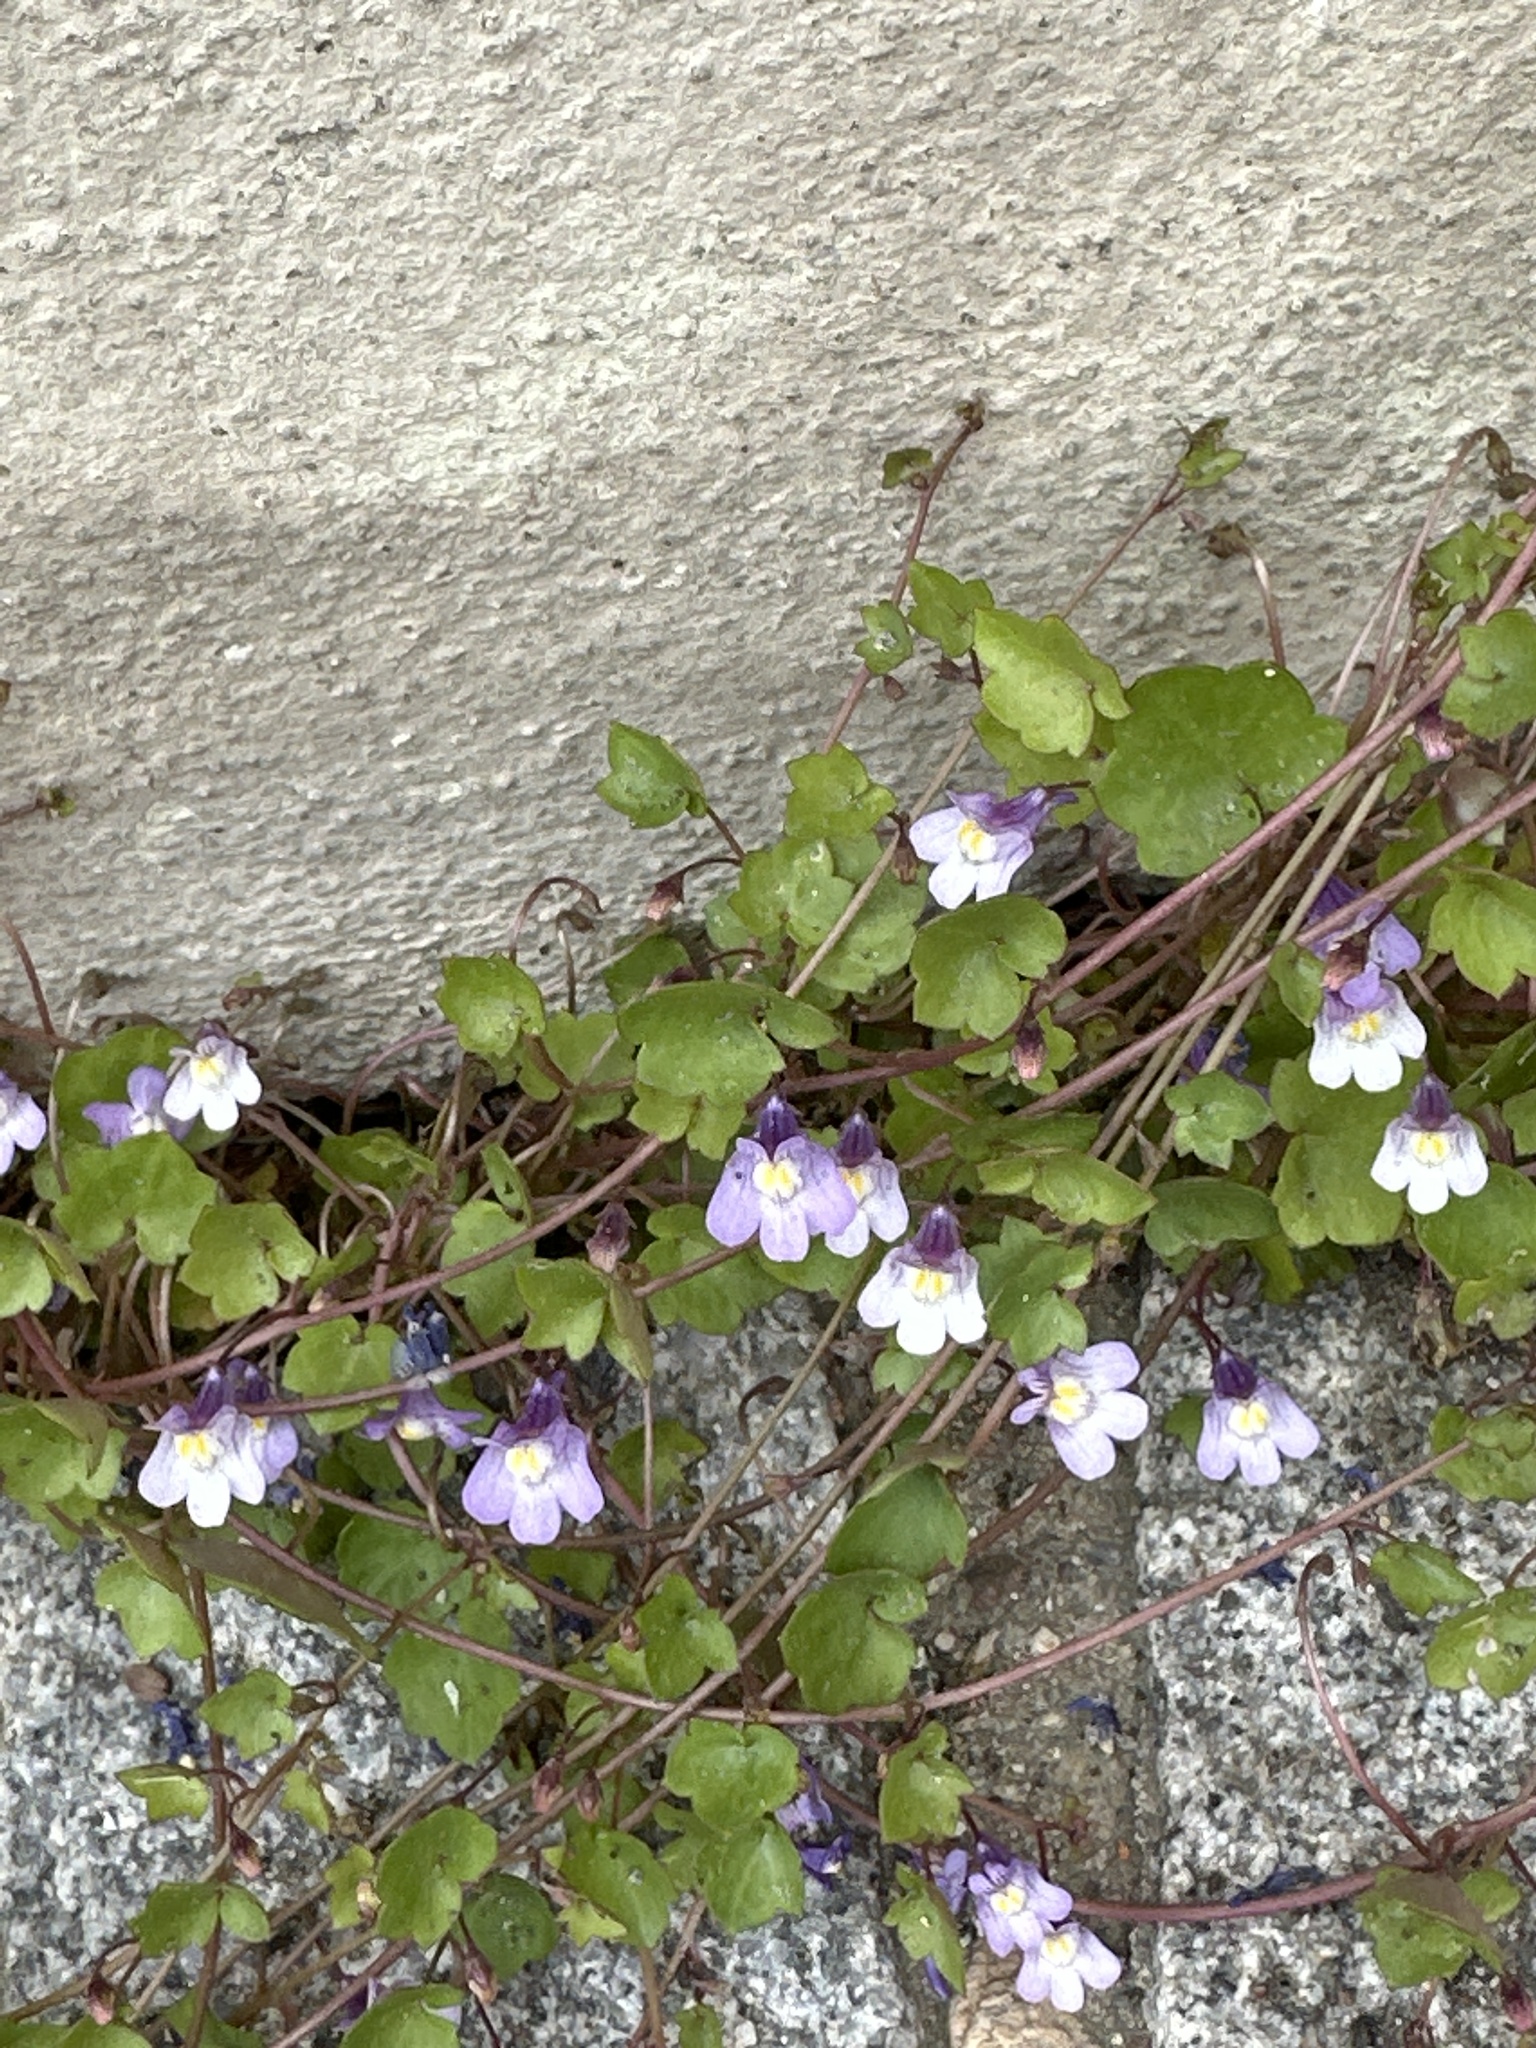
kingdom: Plantae
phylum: Tracheophyta
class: Magnoliopsida
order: Lamiales
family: Plantaginaceae
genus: Cymbalaria
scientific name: Cymbalaria muralis
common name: Ivy-leaved toadflax
